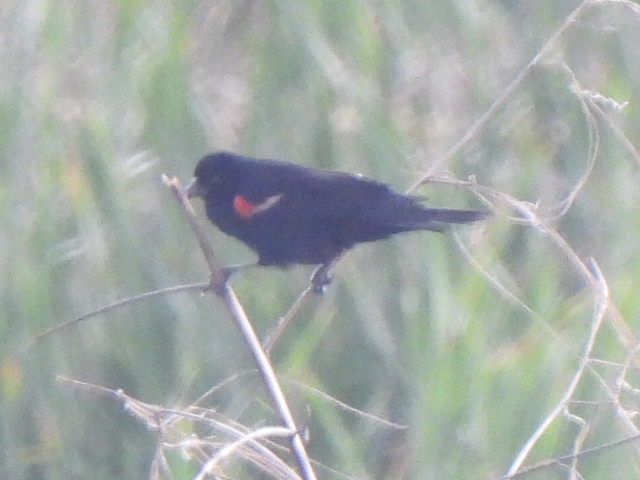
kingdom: Animalia
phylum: Chordata
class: Aves
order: Passeriformes
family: Icteridae
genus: Agelaius
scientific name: Agelaius phoeniceus
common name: Red-winged blackbird
